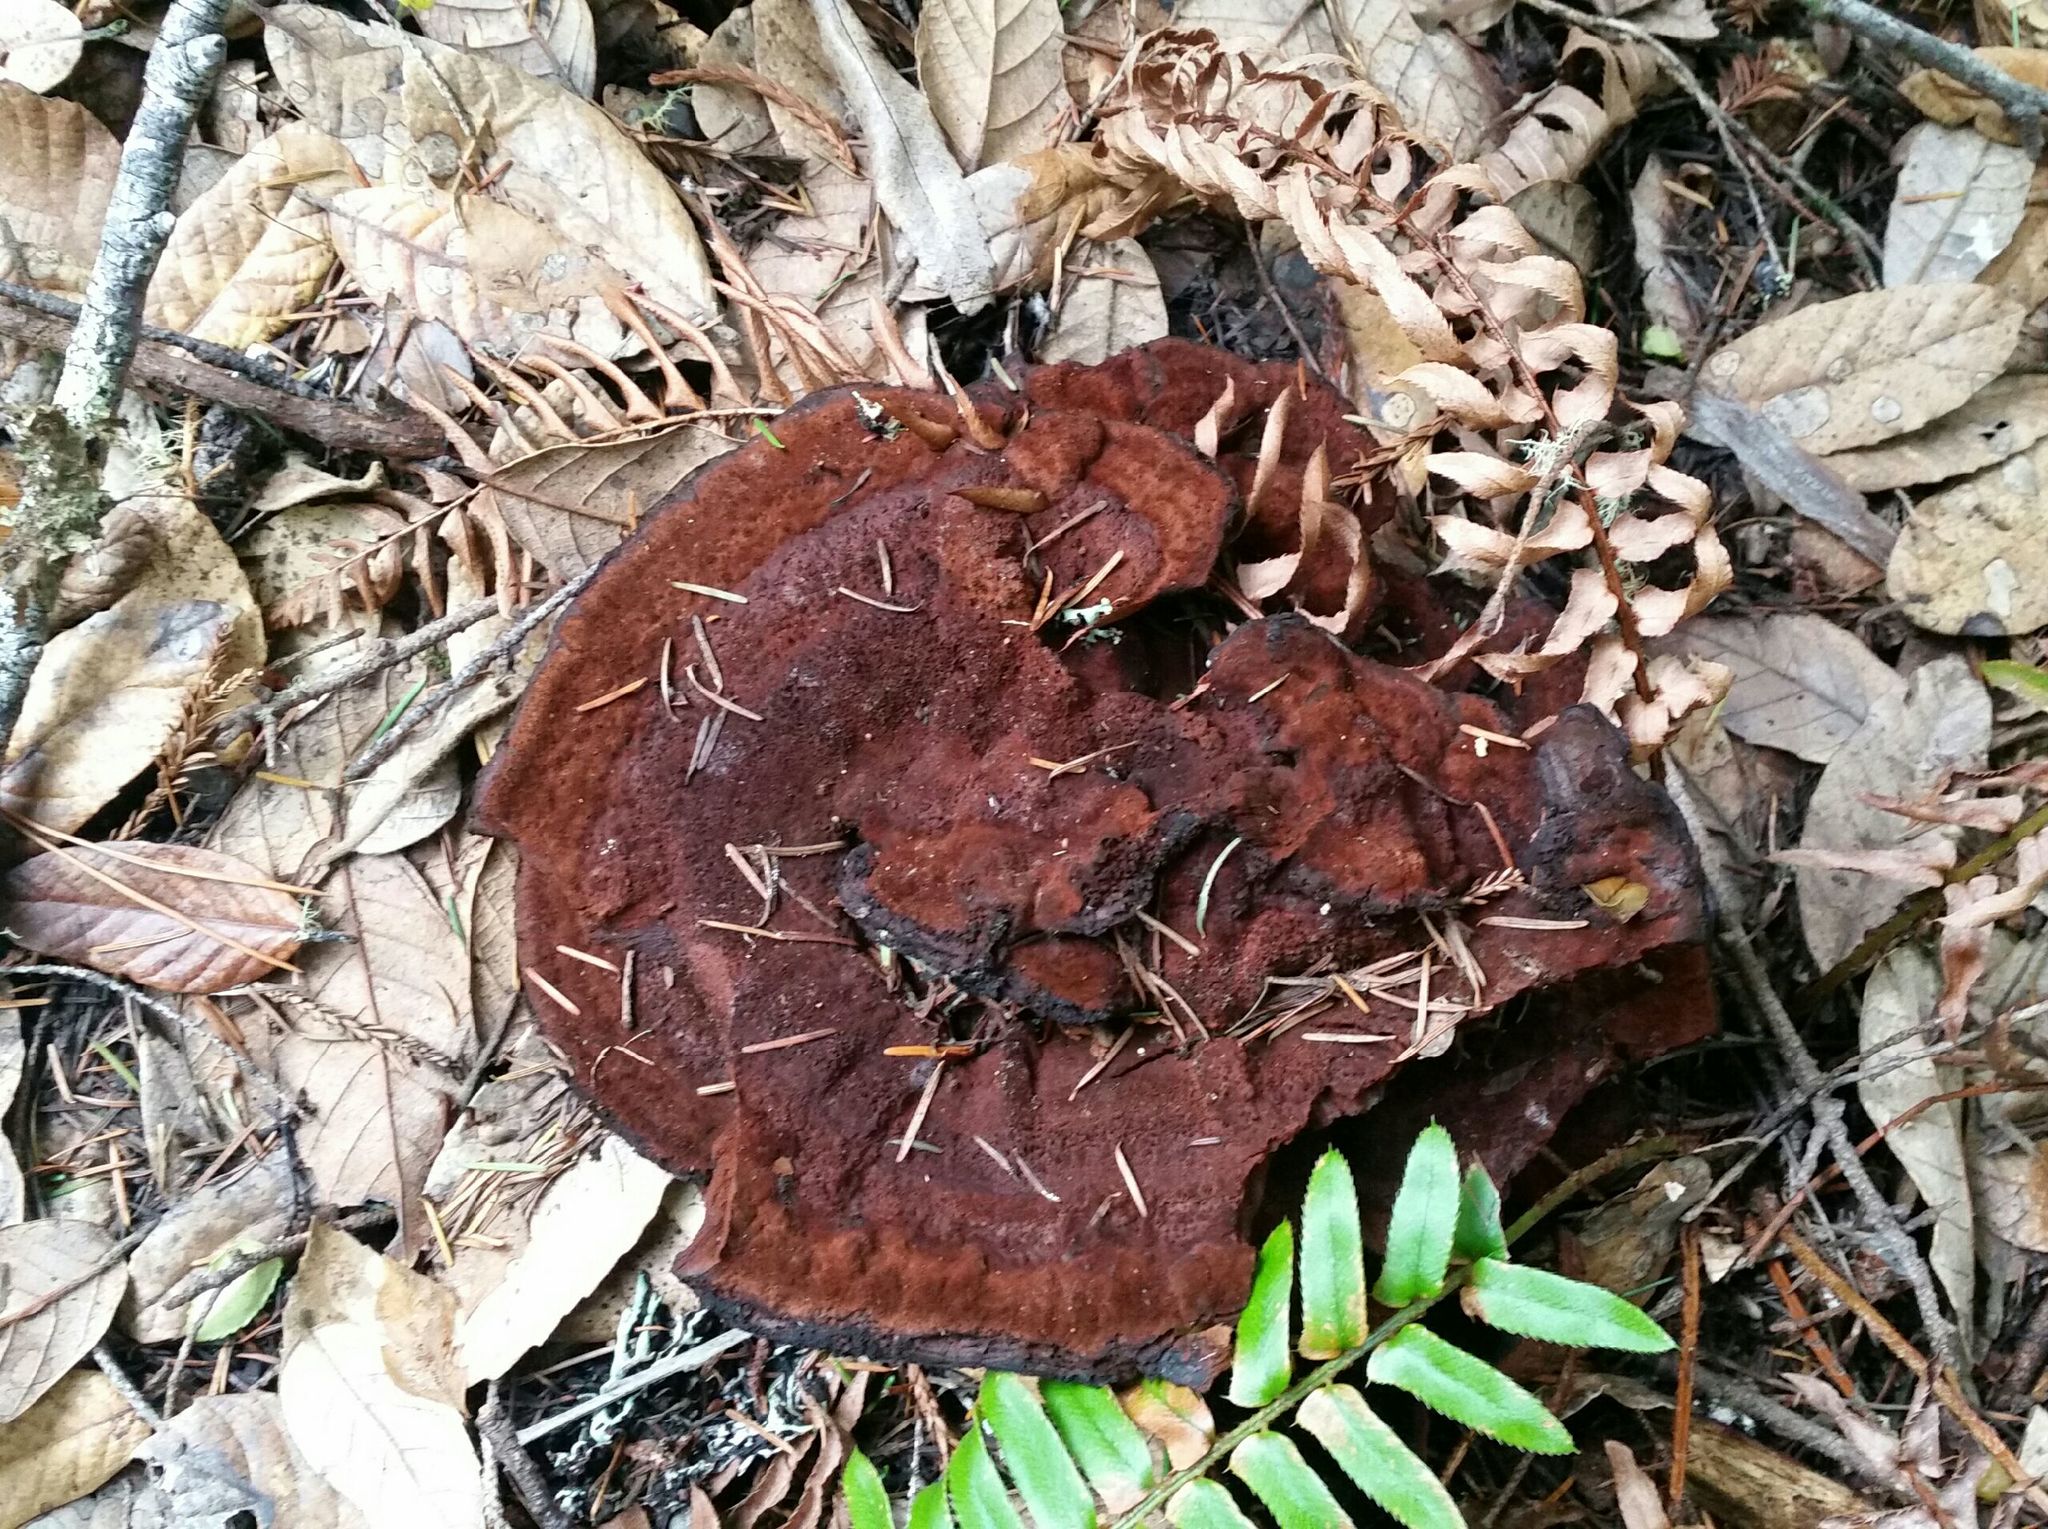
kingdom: Fungi
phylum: Basidiomycota
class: Agaricomycetes
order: Polyporales
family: Laetiporaceae
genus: Phaeolus
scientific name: Phaeolus schweinitzii
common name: Dyer's mazegill
